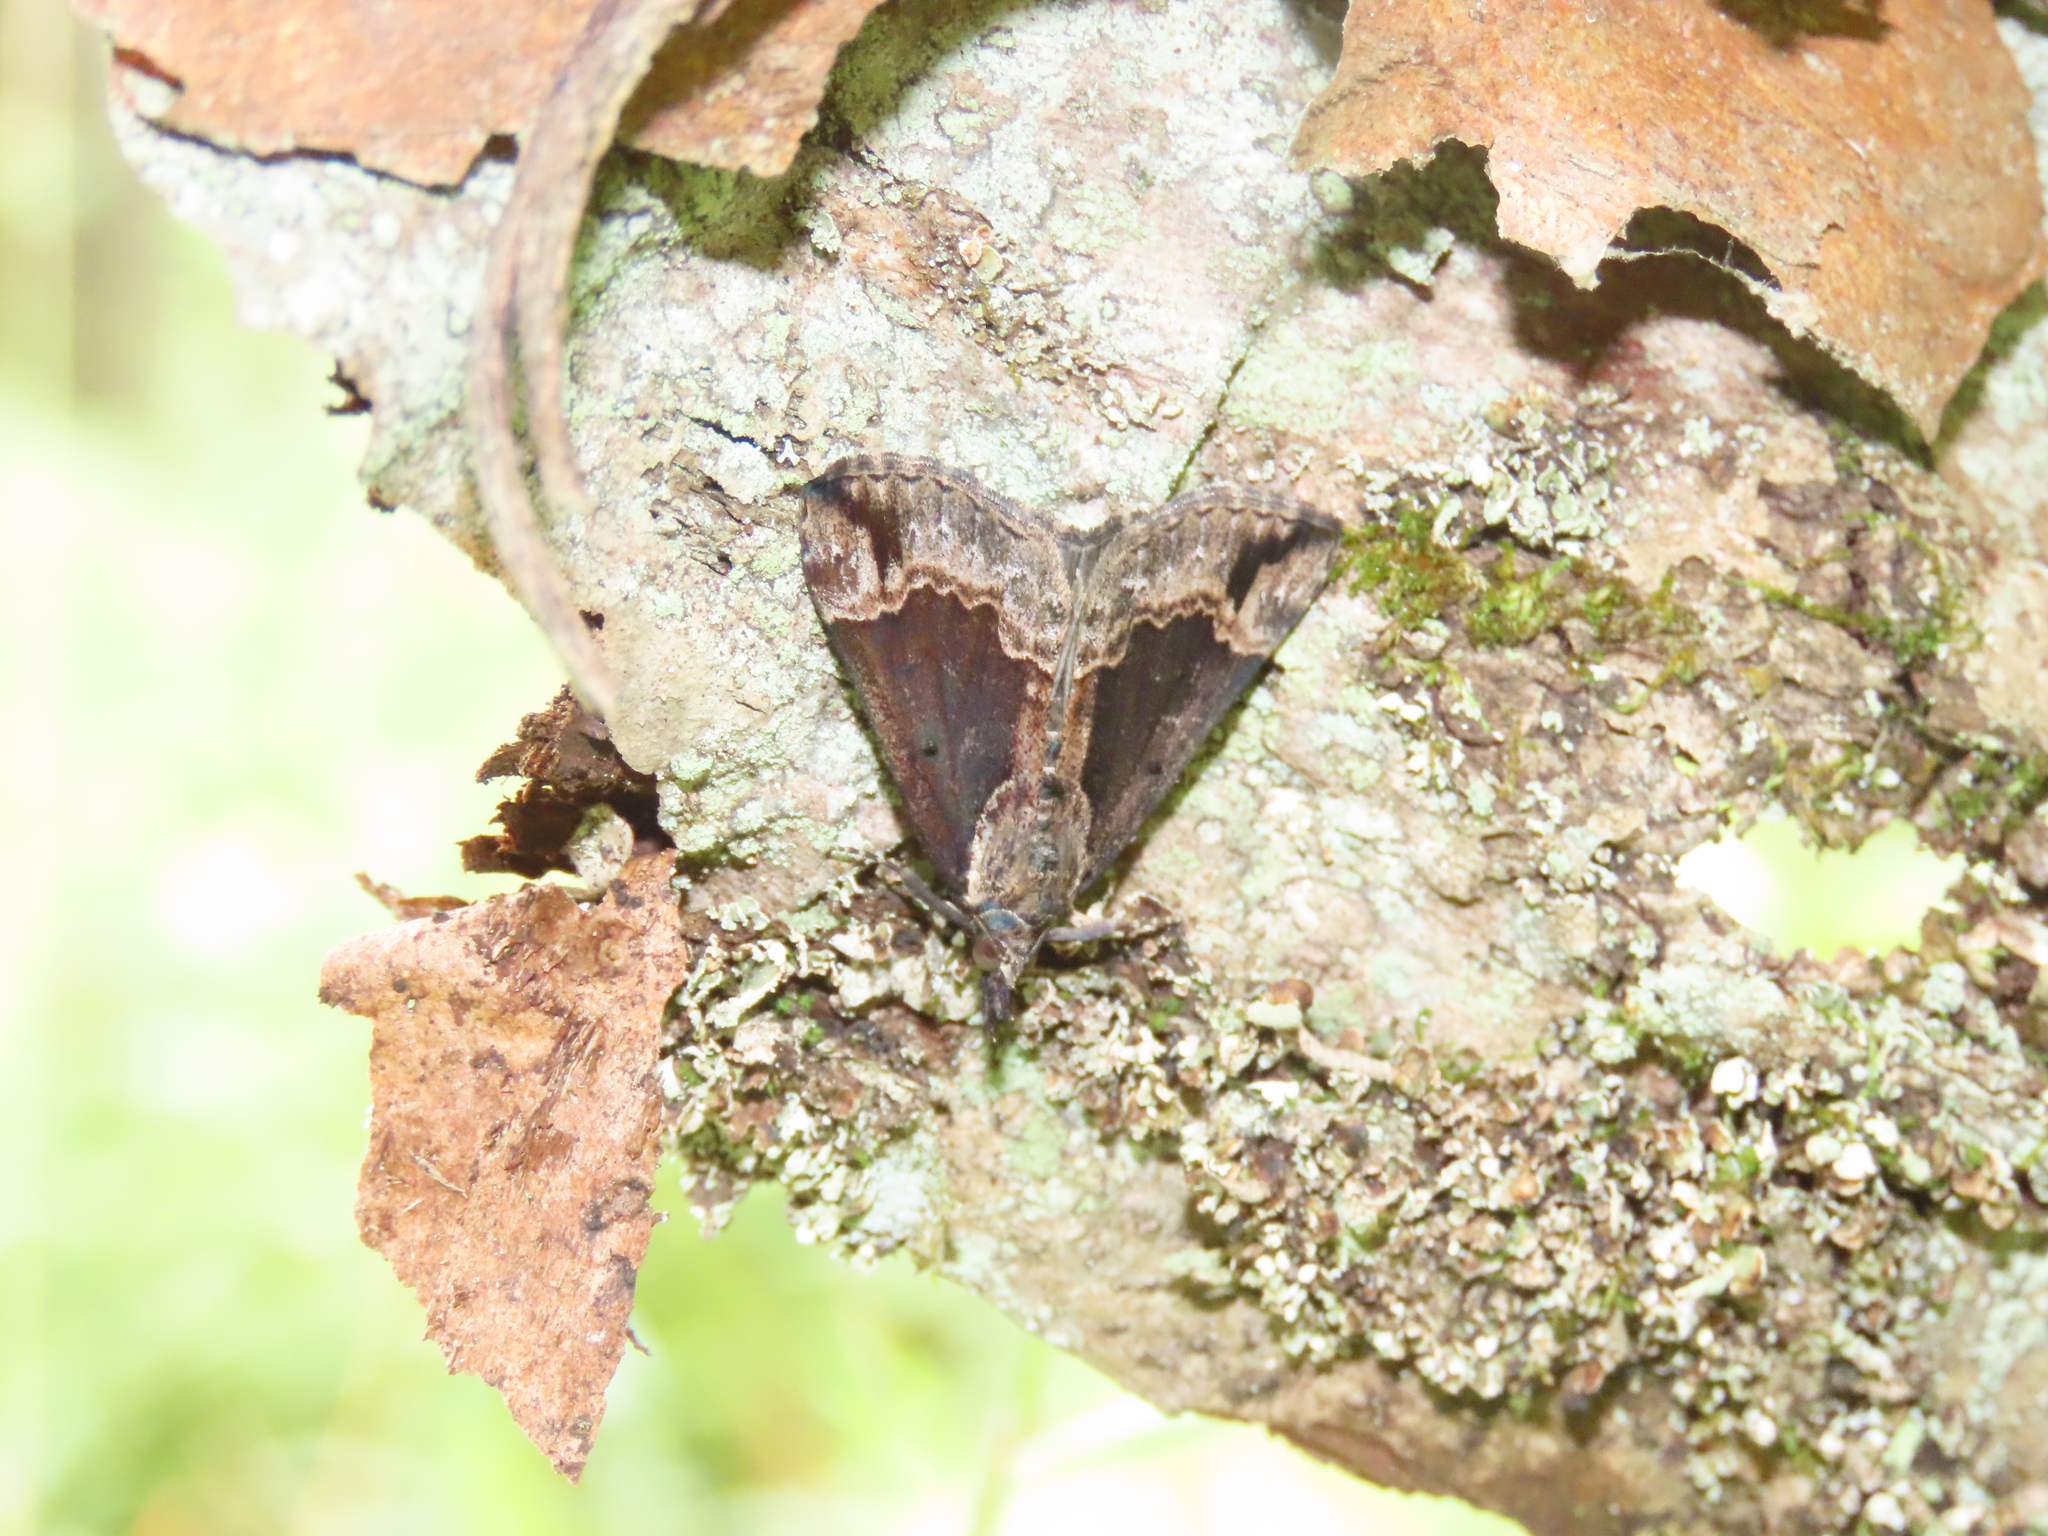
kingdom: Animalia
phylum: Arthropoda
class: Insecta
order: Lepidoptera
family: Erebidae
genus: Hypena
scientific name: Hypena baltimoralis
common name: Baltimore snout
